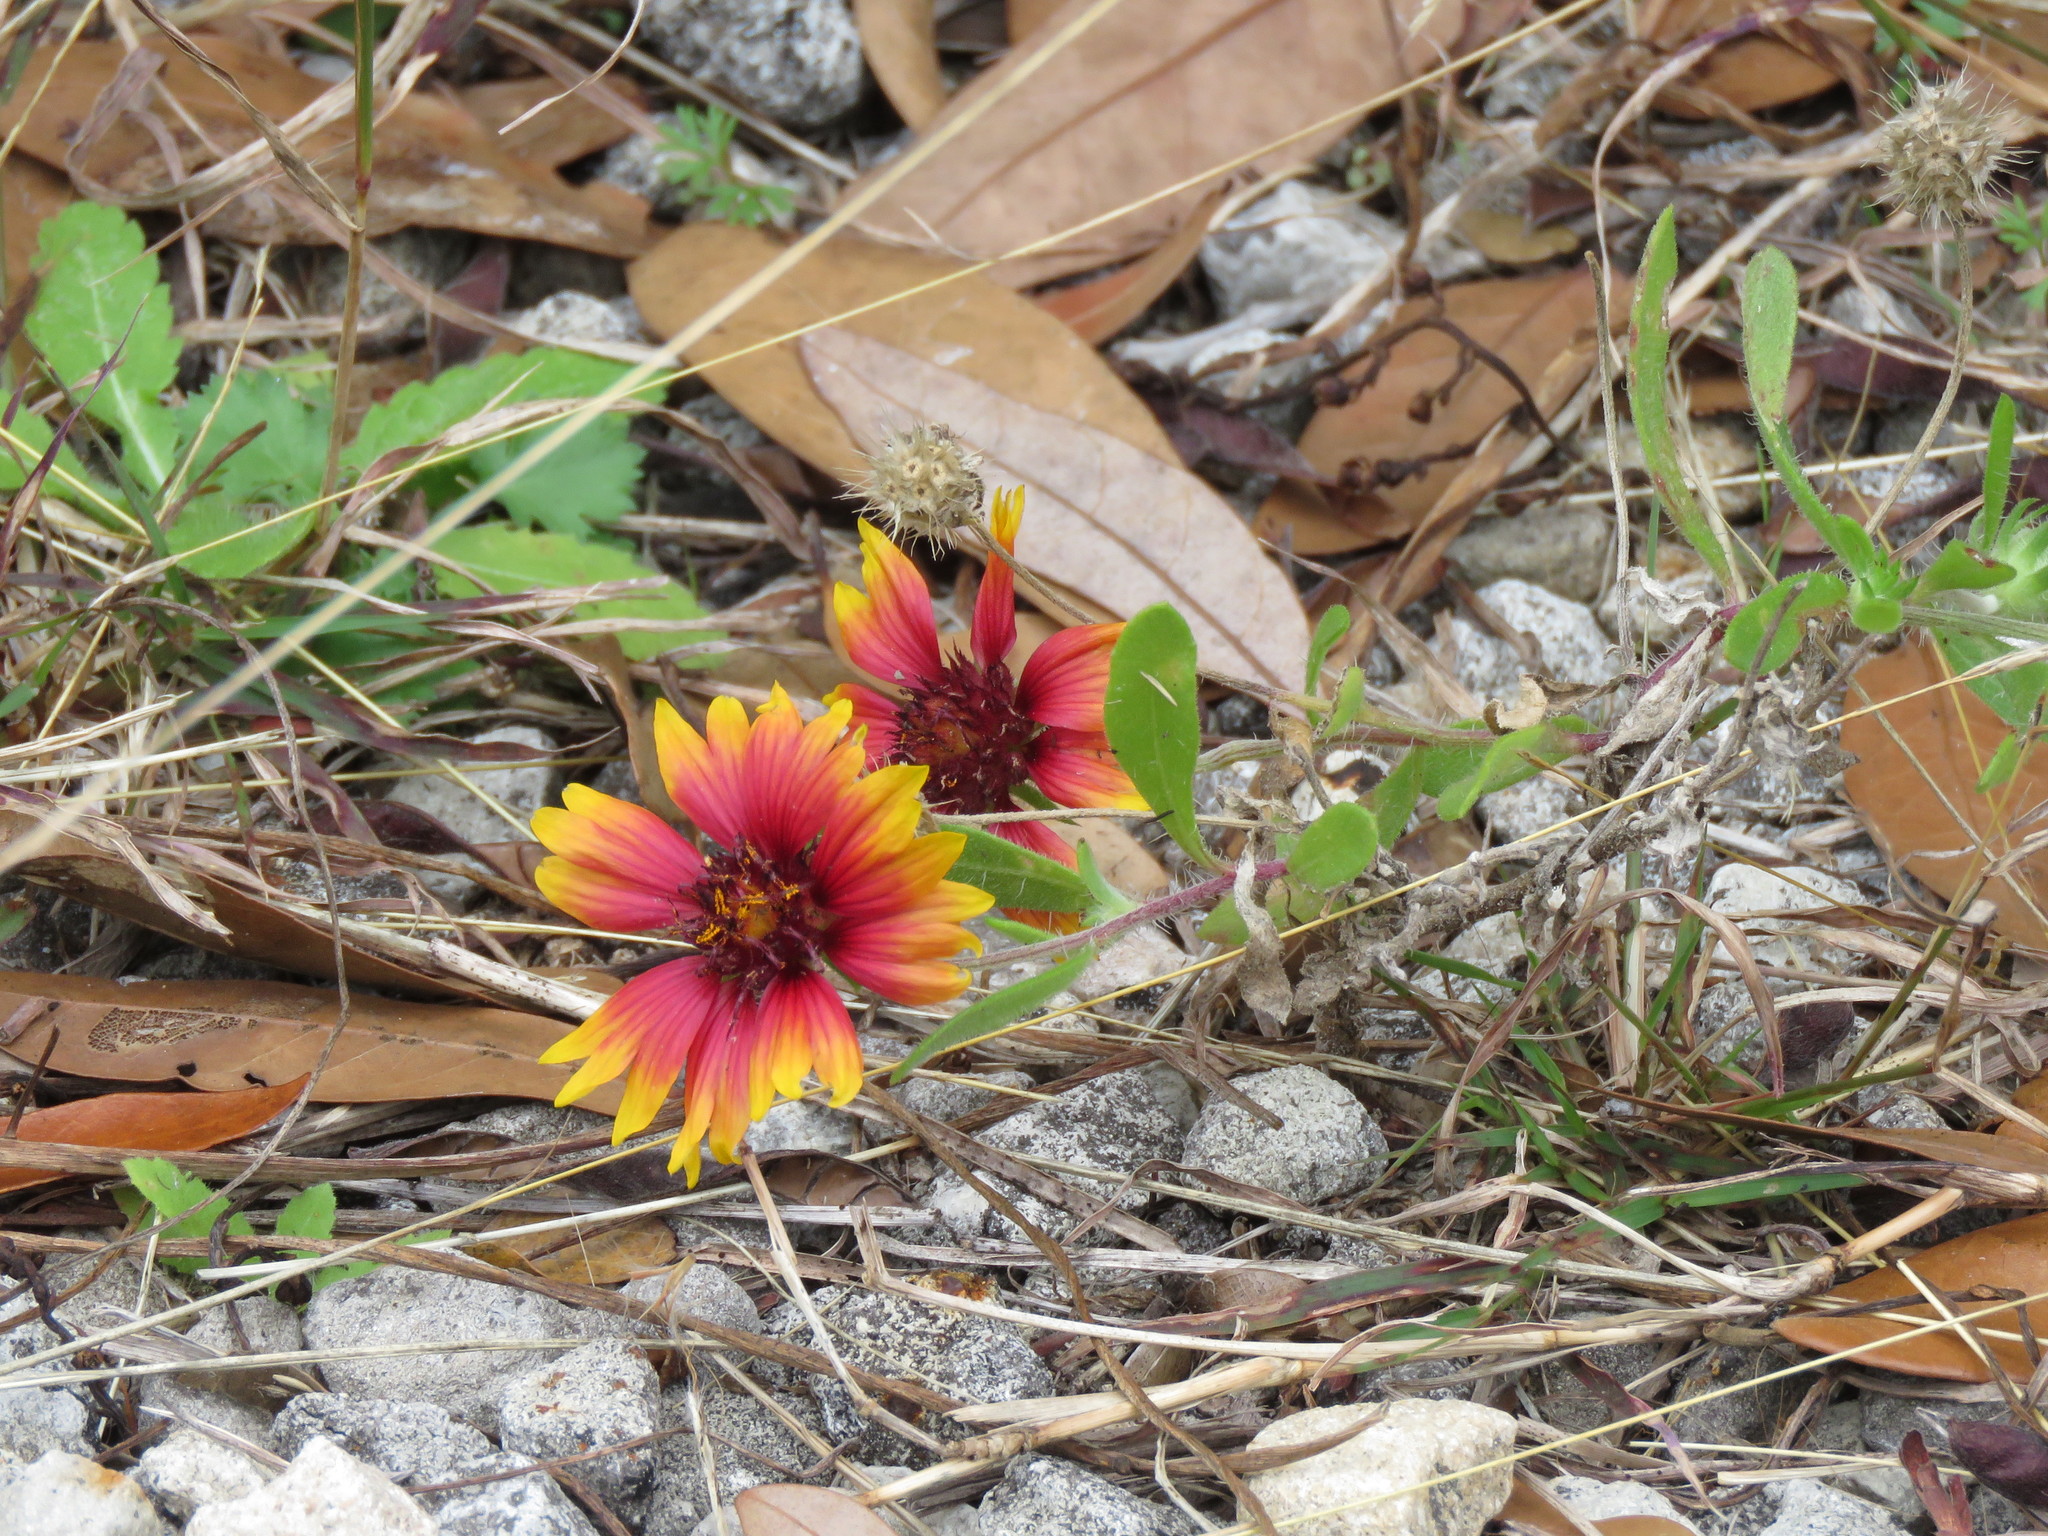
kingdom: Plantae
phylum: Tracheophyta
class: Magnoliopsida
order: Asterales
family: Asteraceae
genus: Gaillardia
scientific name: Gaillardia pulchella
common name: Firewheel
